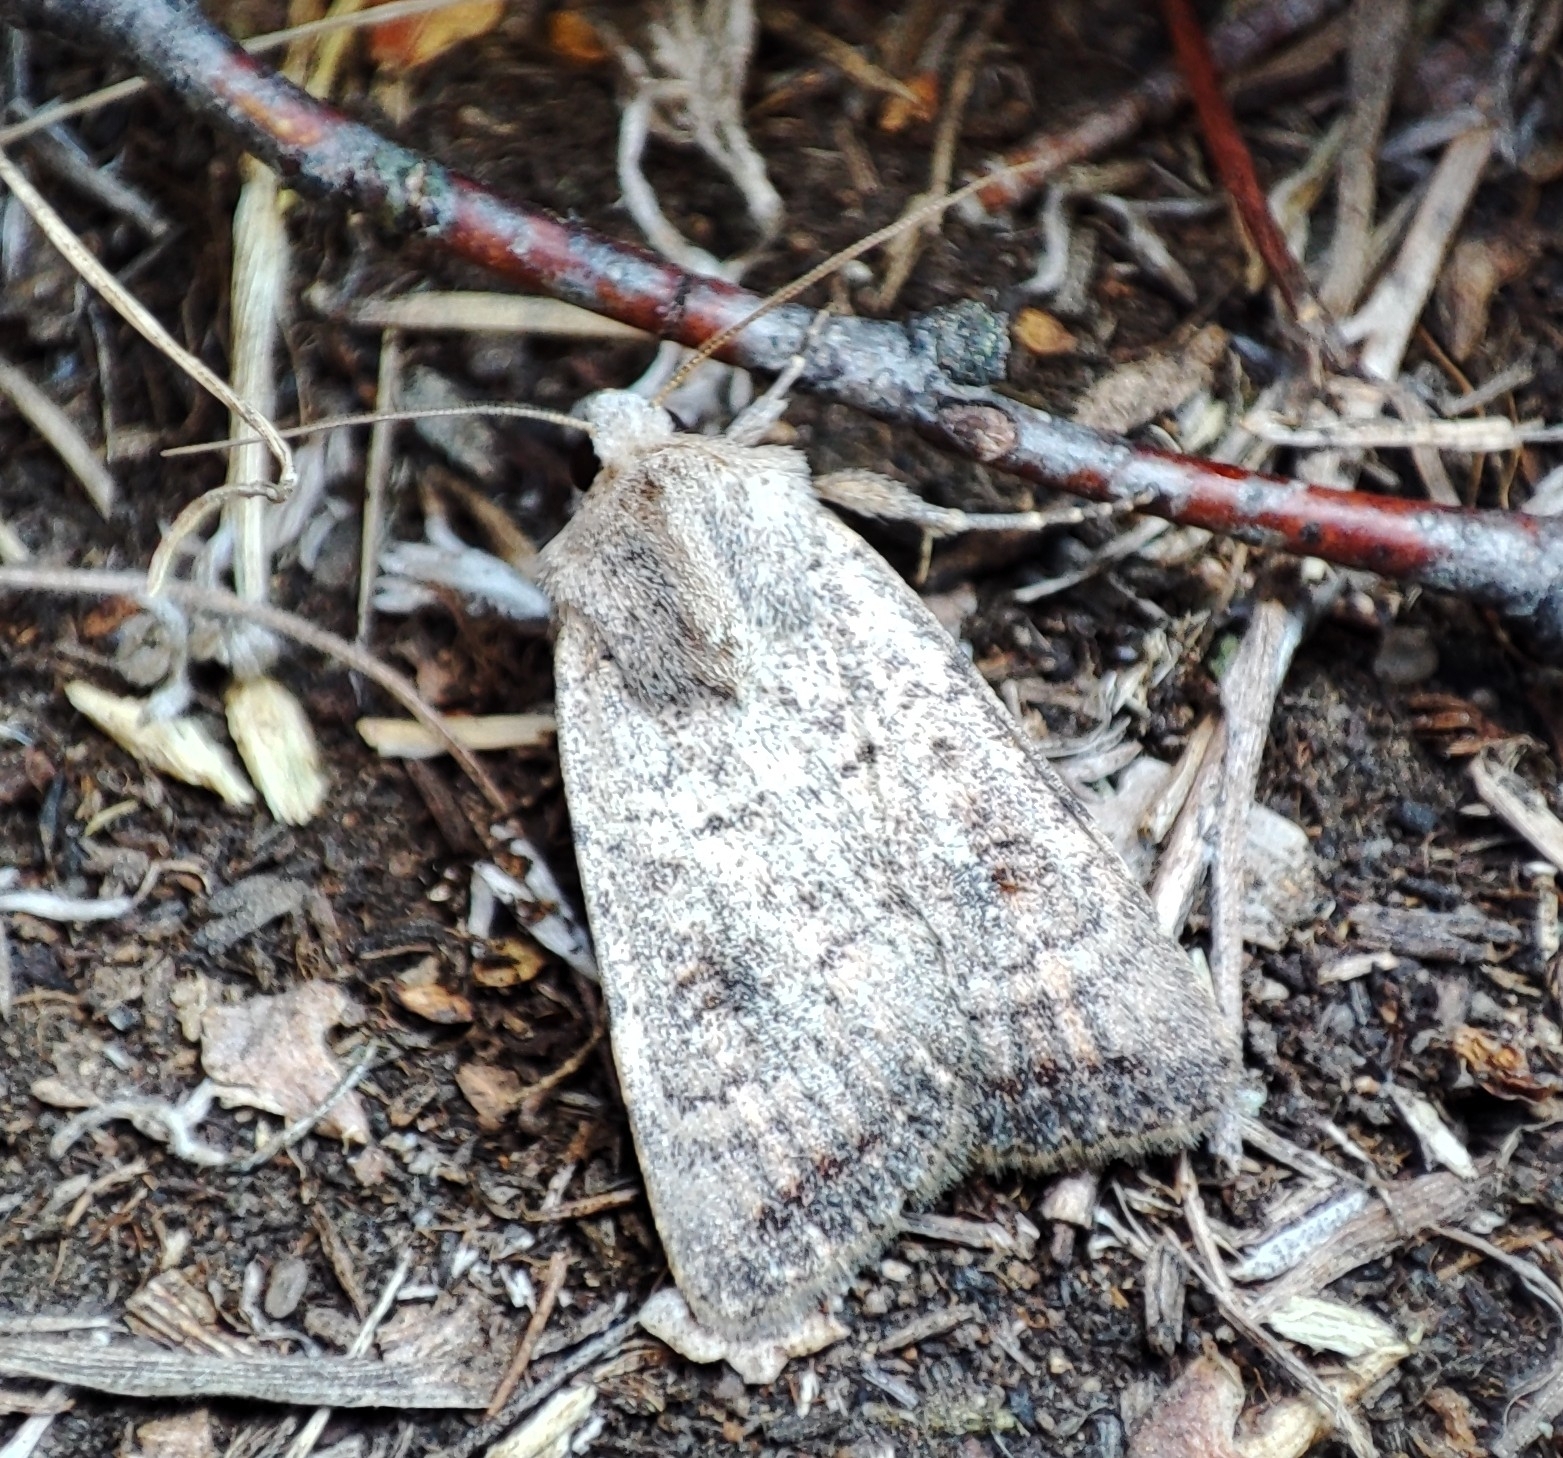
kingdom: Animalia
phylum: Arthropoda
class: Insecta
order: Lepidoptera
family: Noctuidae
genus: Caradrina
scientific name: Caradrina terrea
